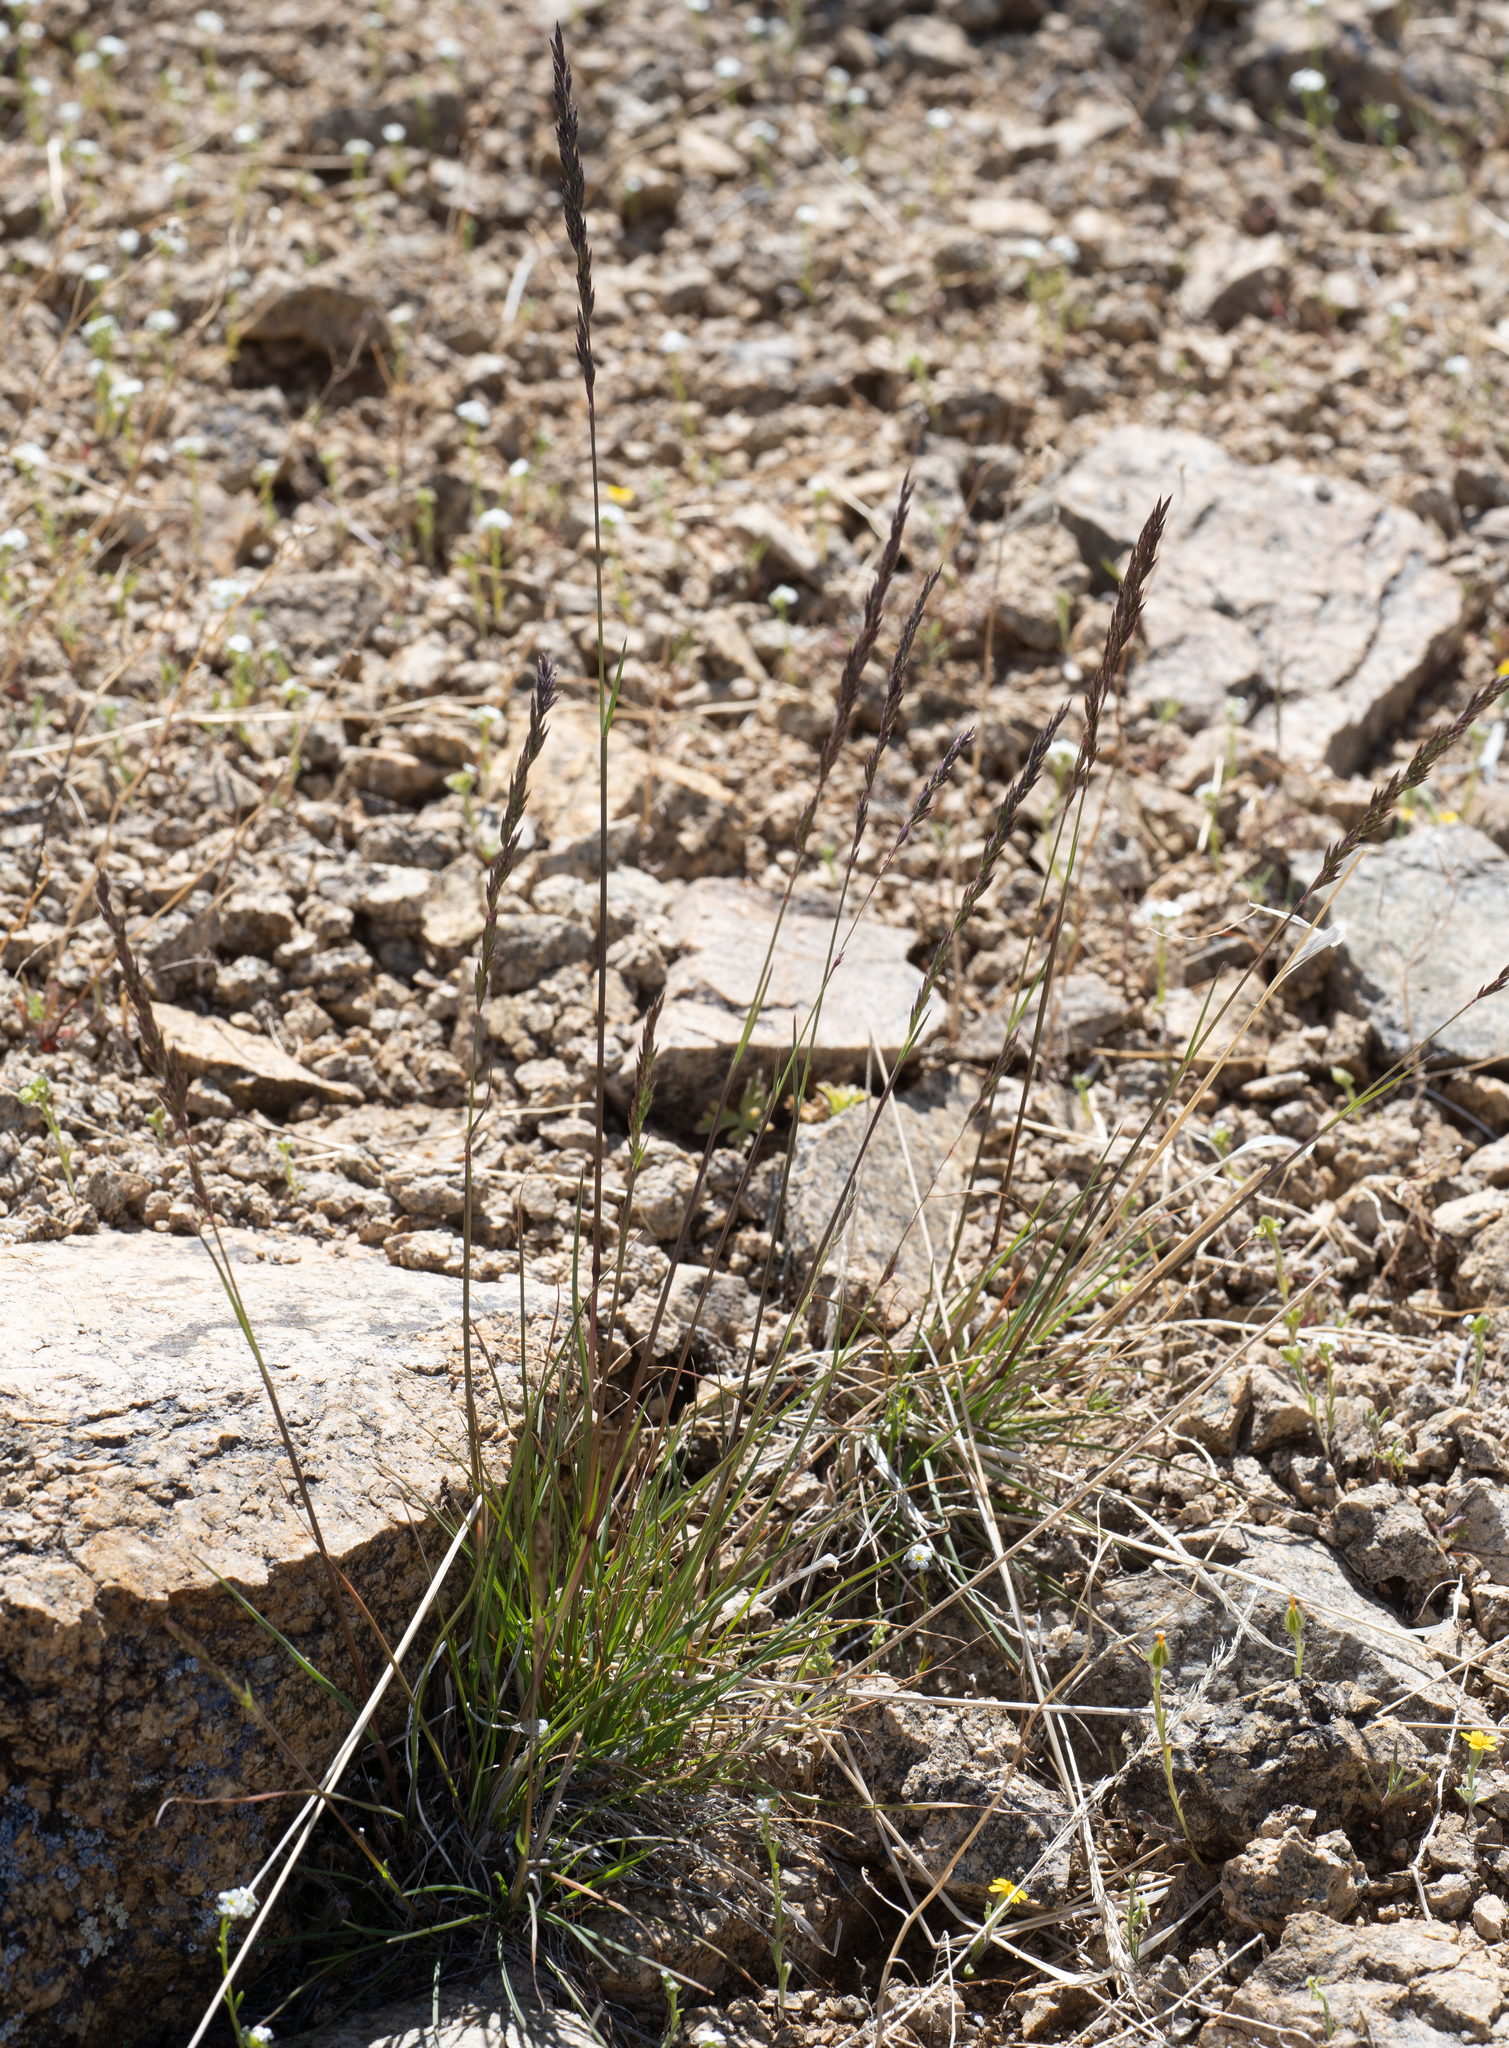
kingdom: Plantae
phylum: Tracheophyta
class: Liliopsida
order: Poales
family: Poaceae
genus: Poa
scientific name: Poa secunda
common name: Sandberg bluegrass
